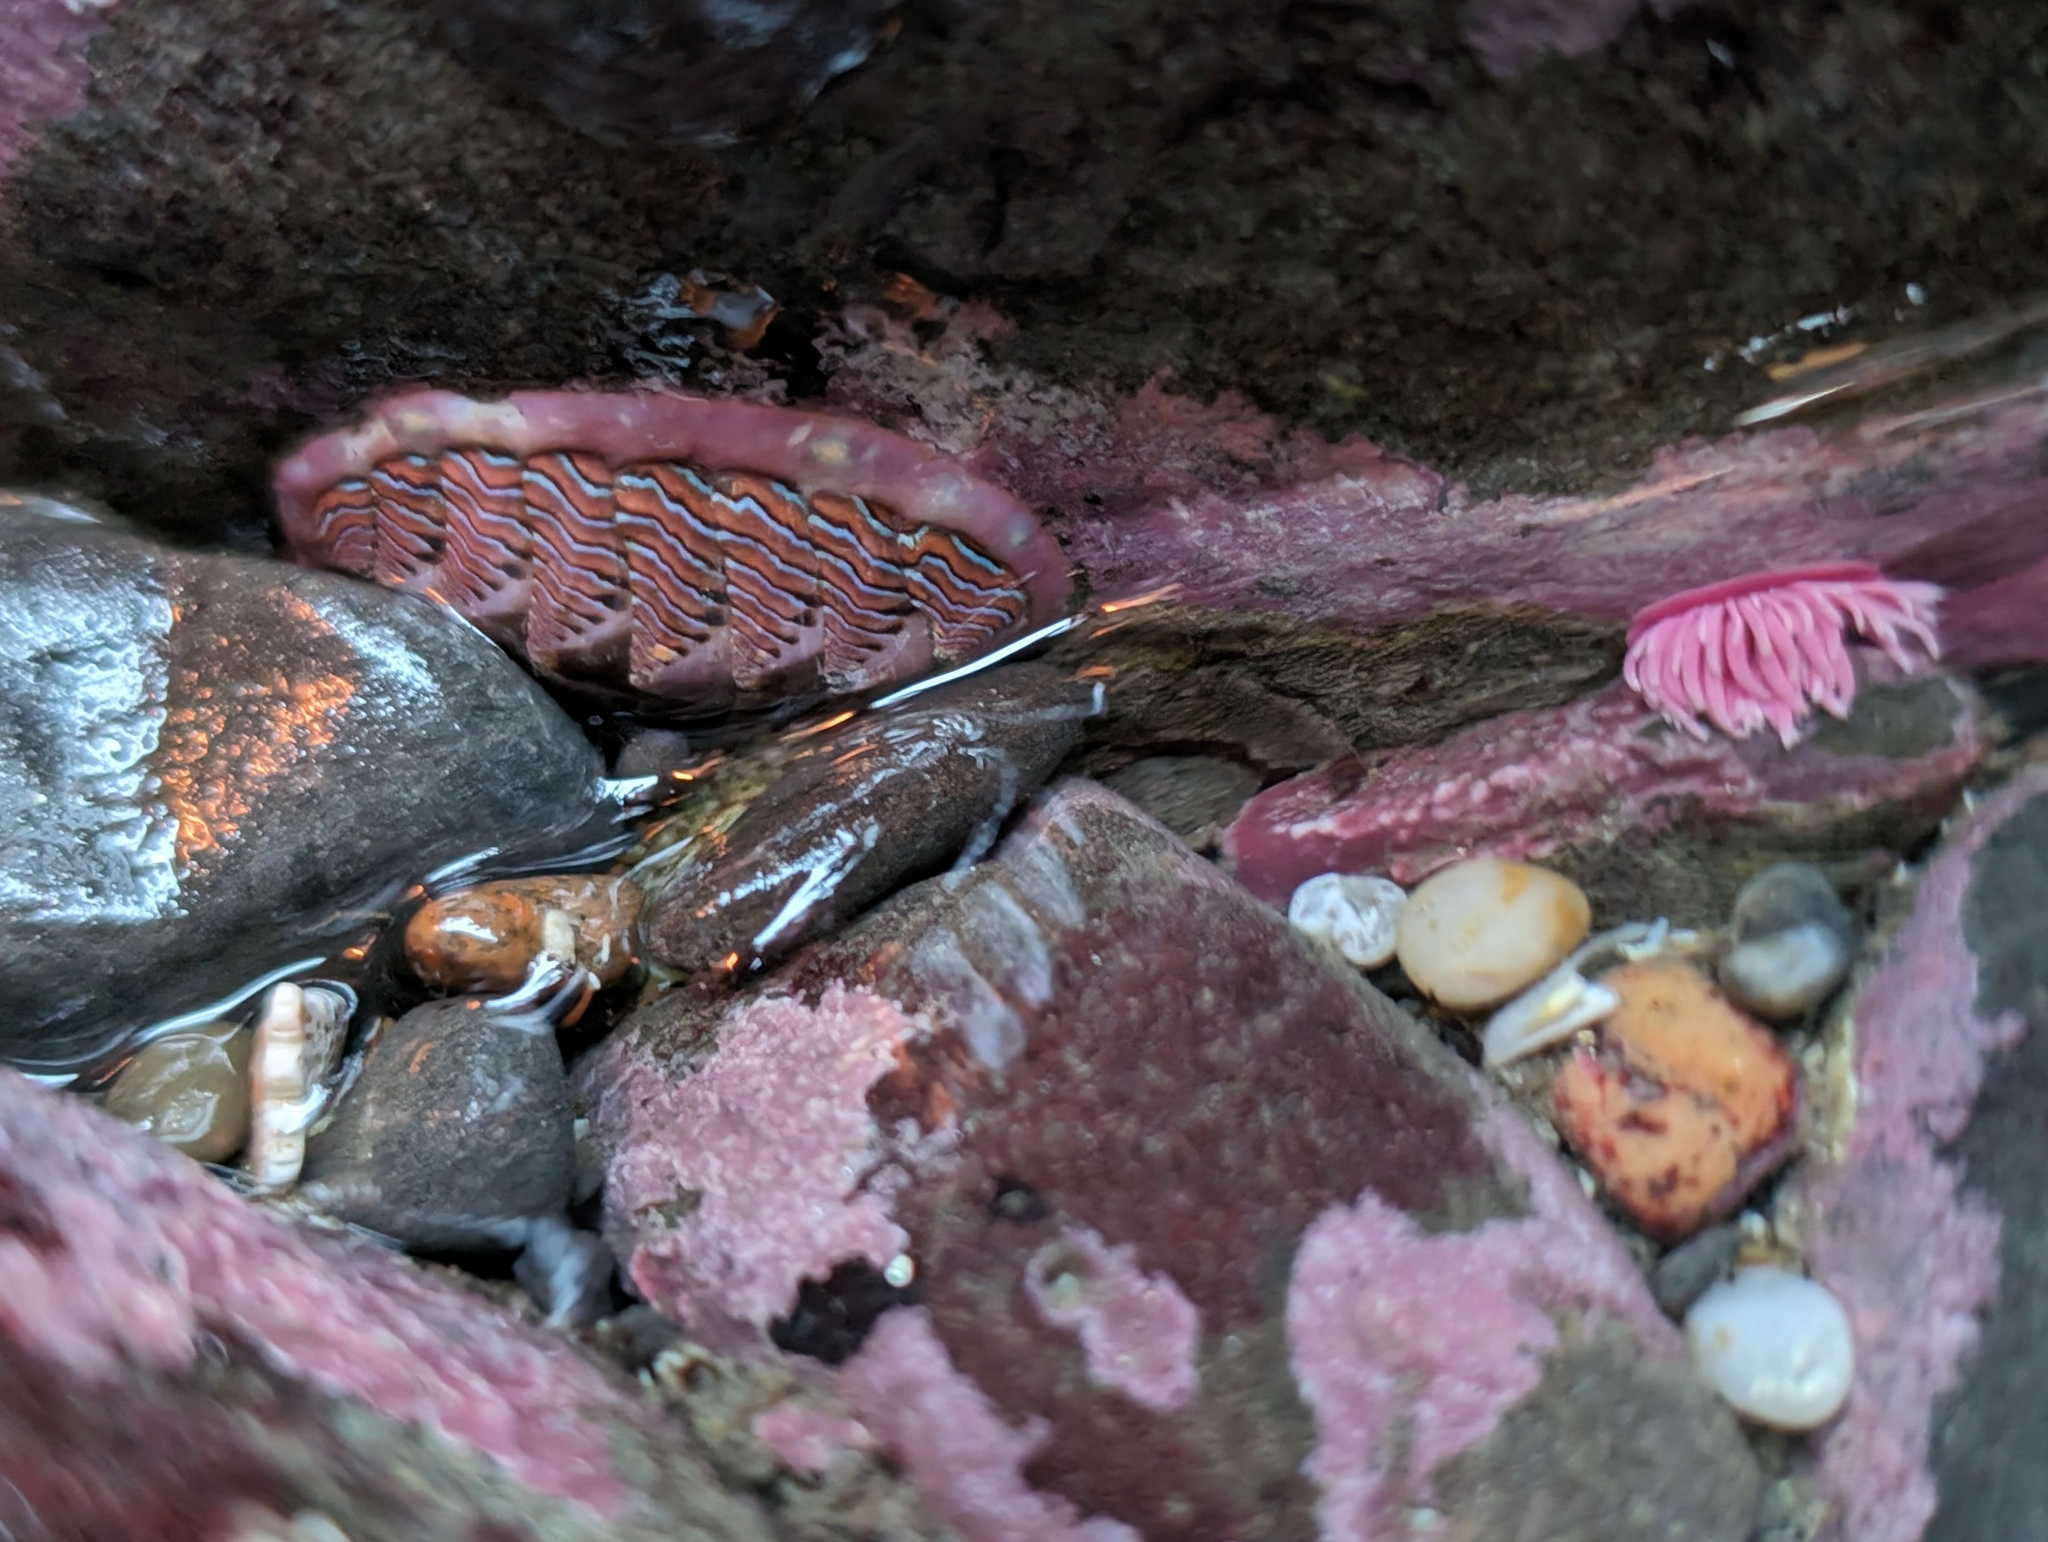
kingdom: Animalia
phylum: Mollusca
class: Polyplacophora
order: Chitonida
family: Tonicellidae
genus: Tonicella
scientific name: Tonicella lineata
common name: Lined chiton
